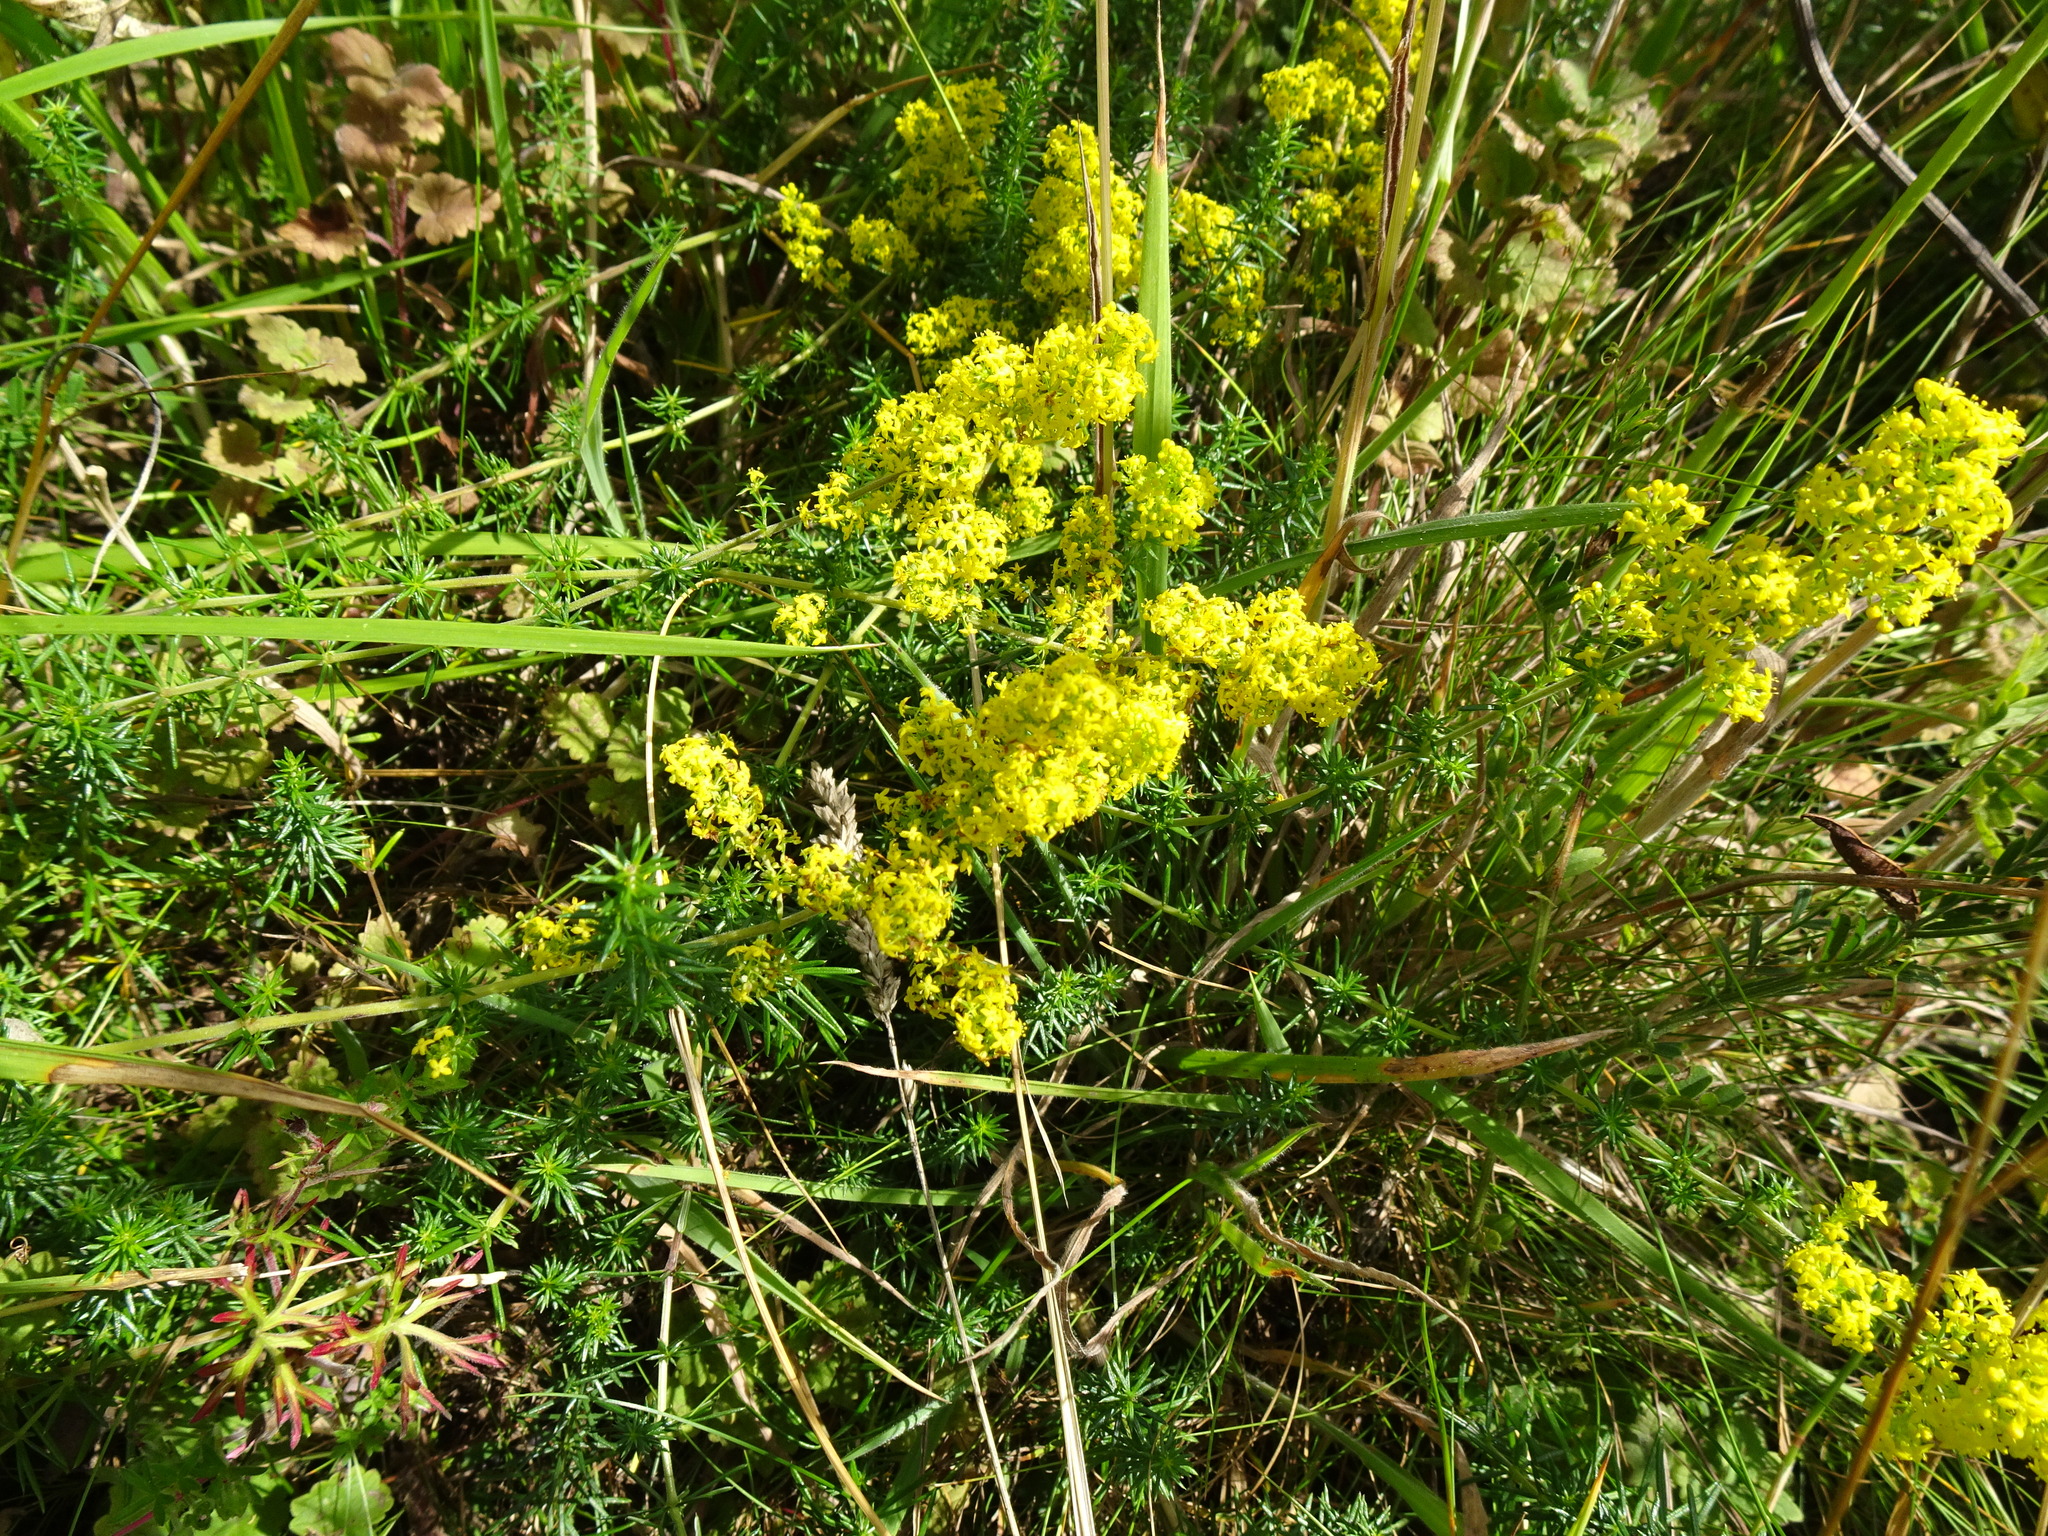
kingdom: Plantae
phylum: Tracheophyta
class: Magnoliopsida
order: Gentianales
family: Rubiaceae
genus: Galium
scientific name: Galium verum
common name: Lady's bedstraw
